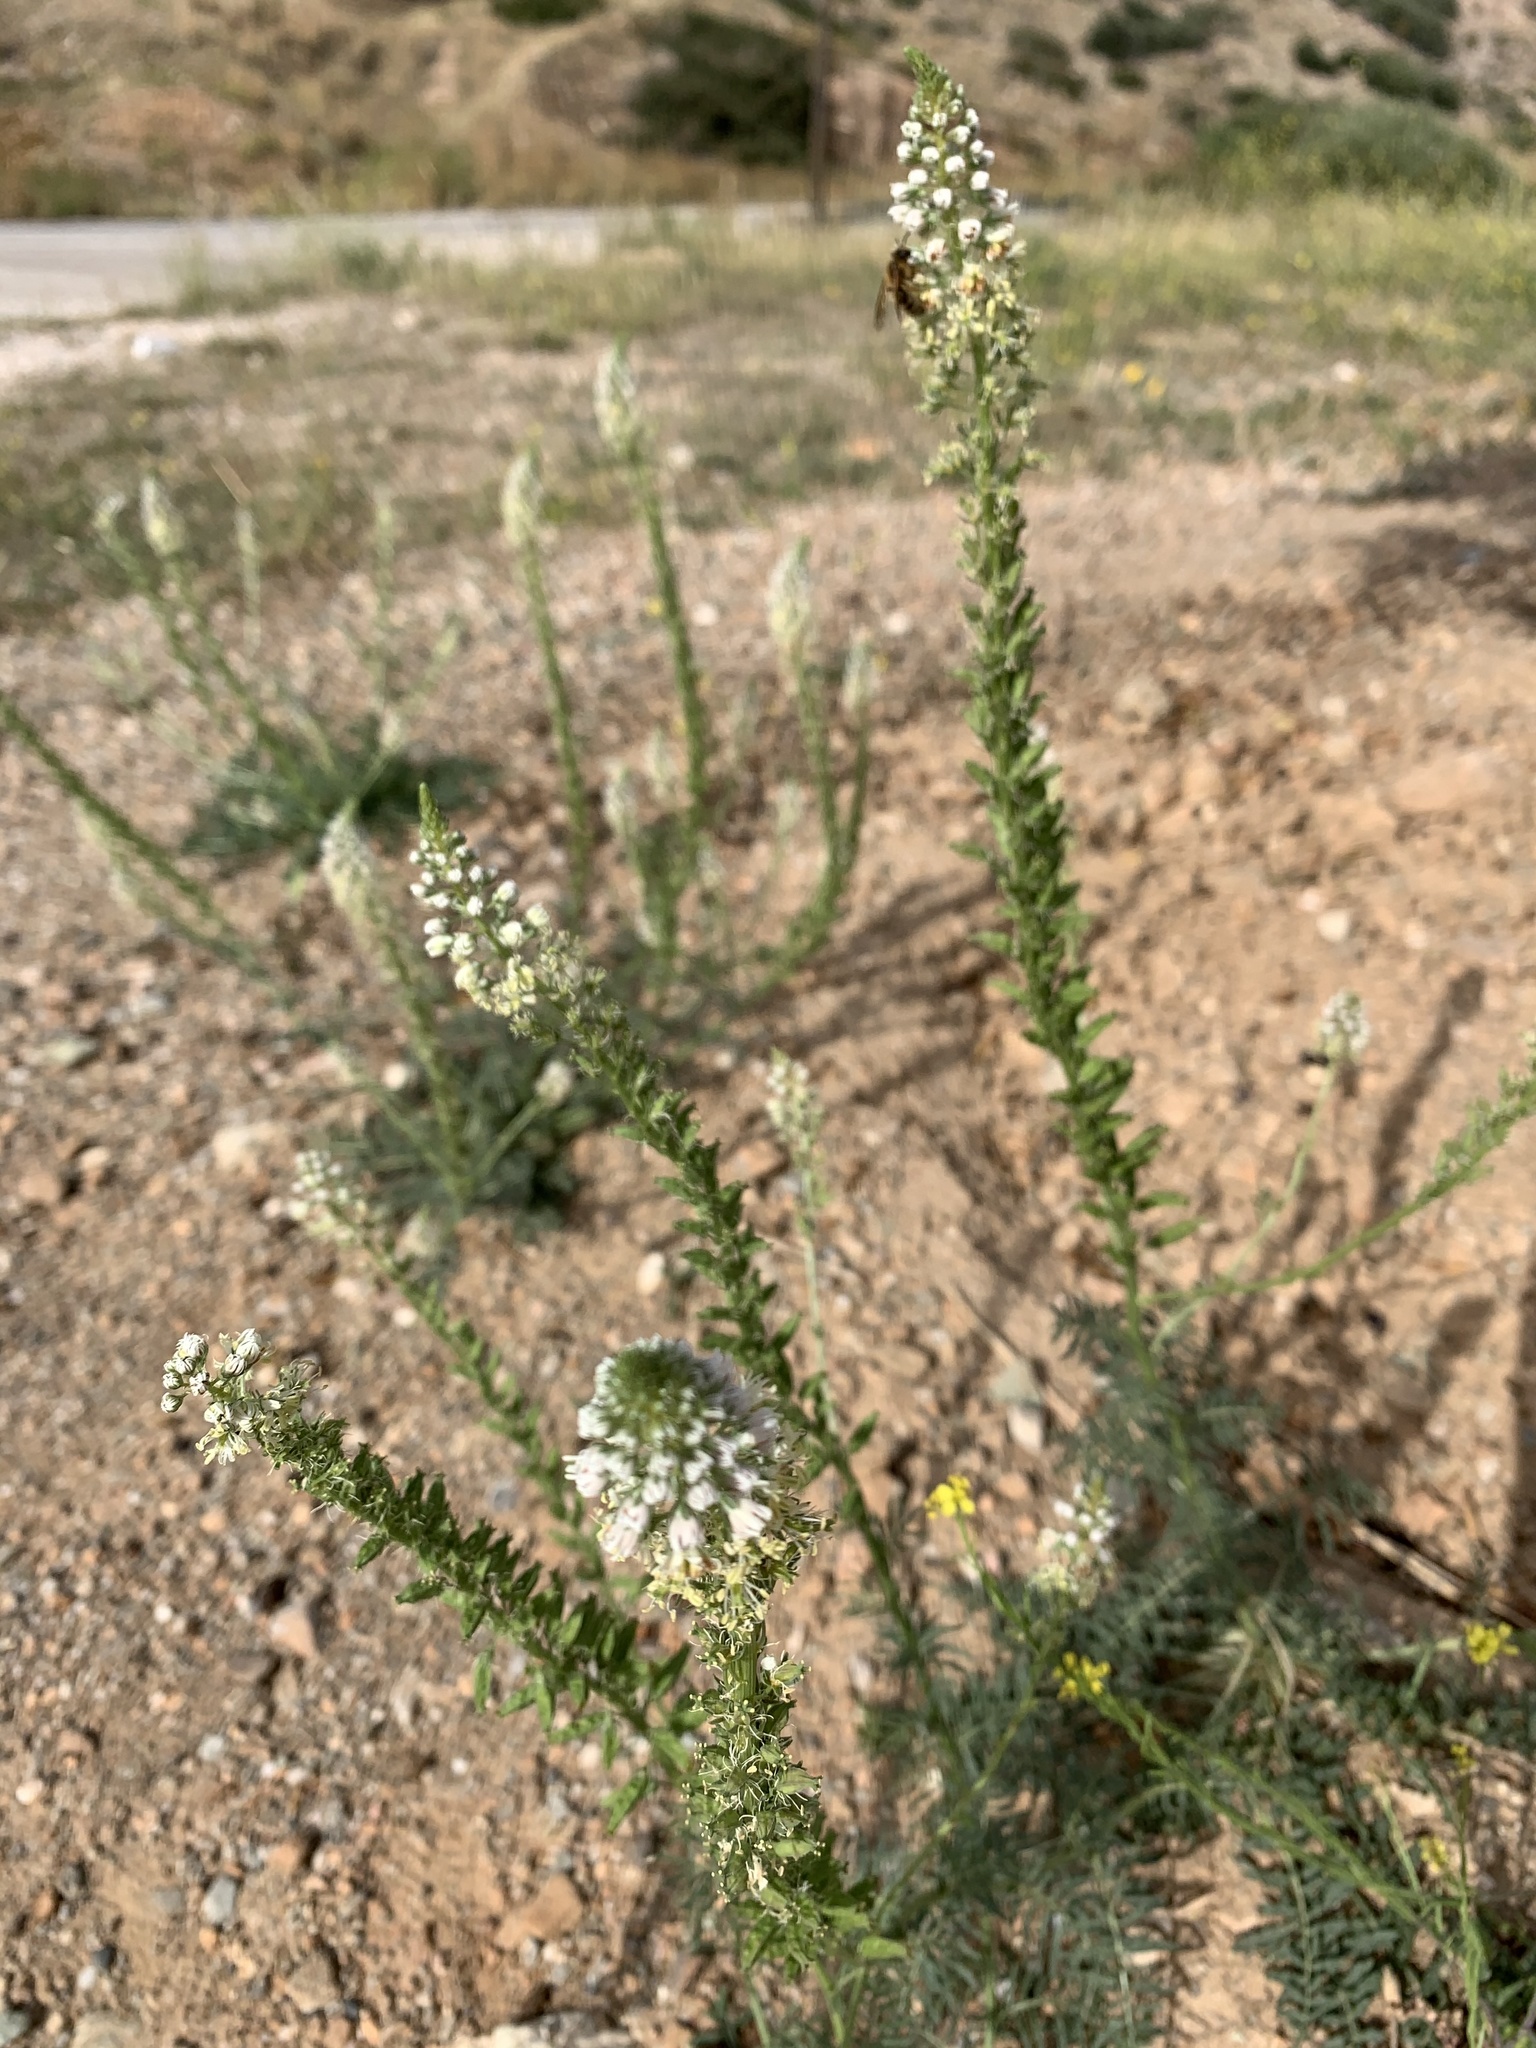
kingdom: Plantae
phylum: Tracheophyta
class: Magnoliopsida
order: Brassicales
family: Resedaceae
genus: Reseda
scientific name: Reseda alba
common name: White mignonette
